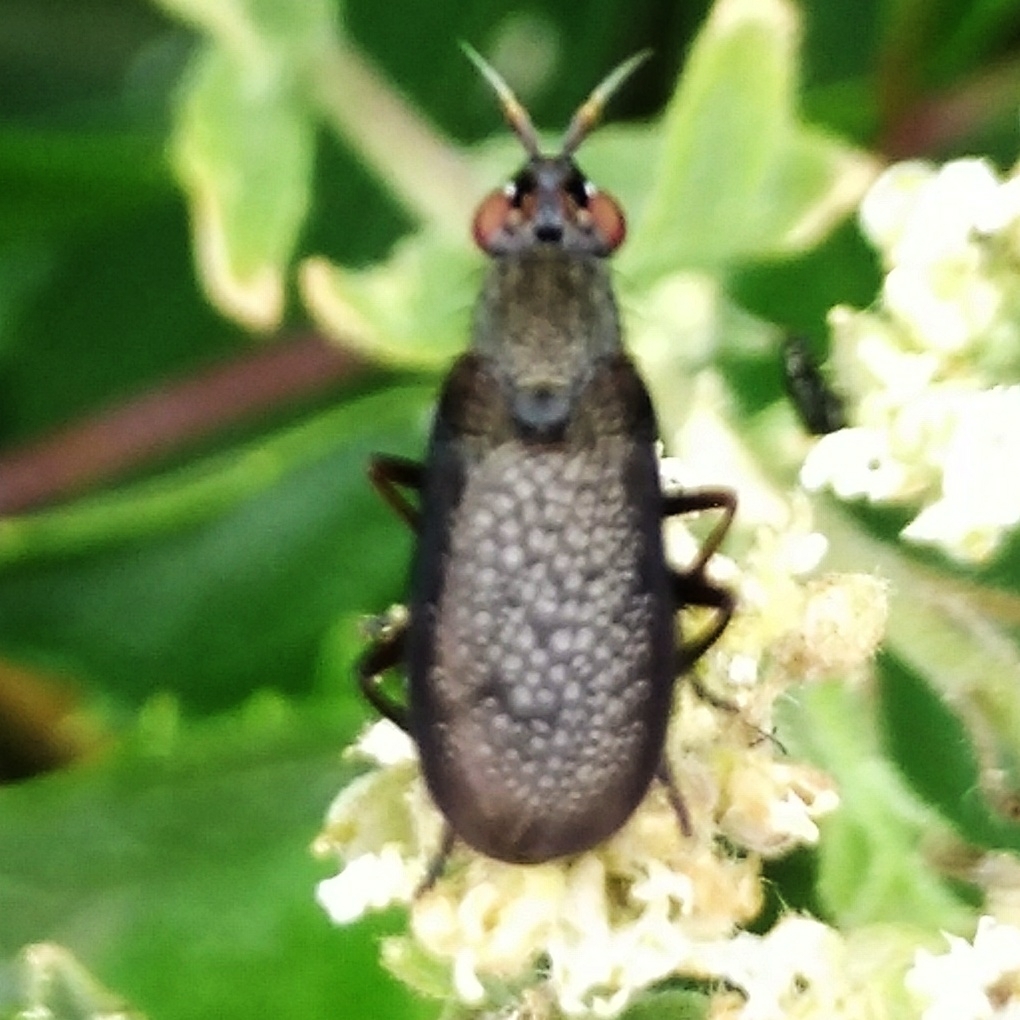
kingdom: Animalia
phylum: Arthropoda
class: Insecta
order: Diptera
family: Sciomyzidae
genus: Coremacera
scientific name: Coremacera marginata
